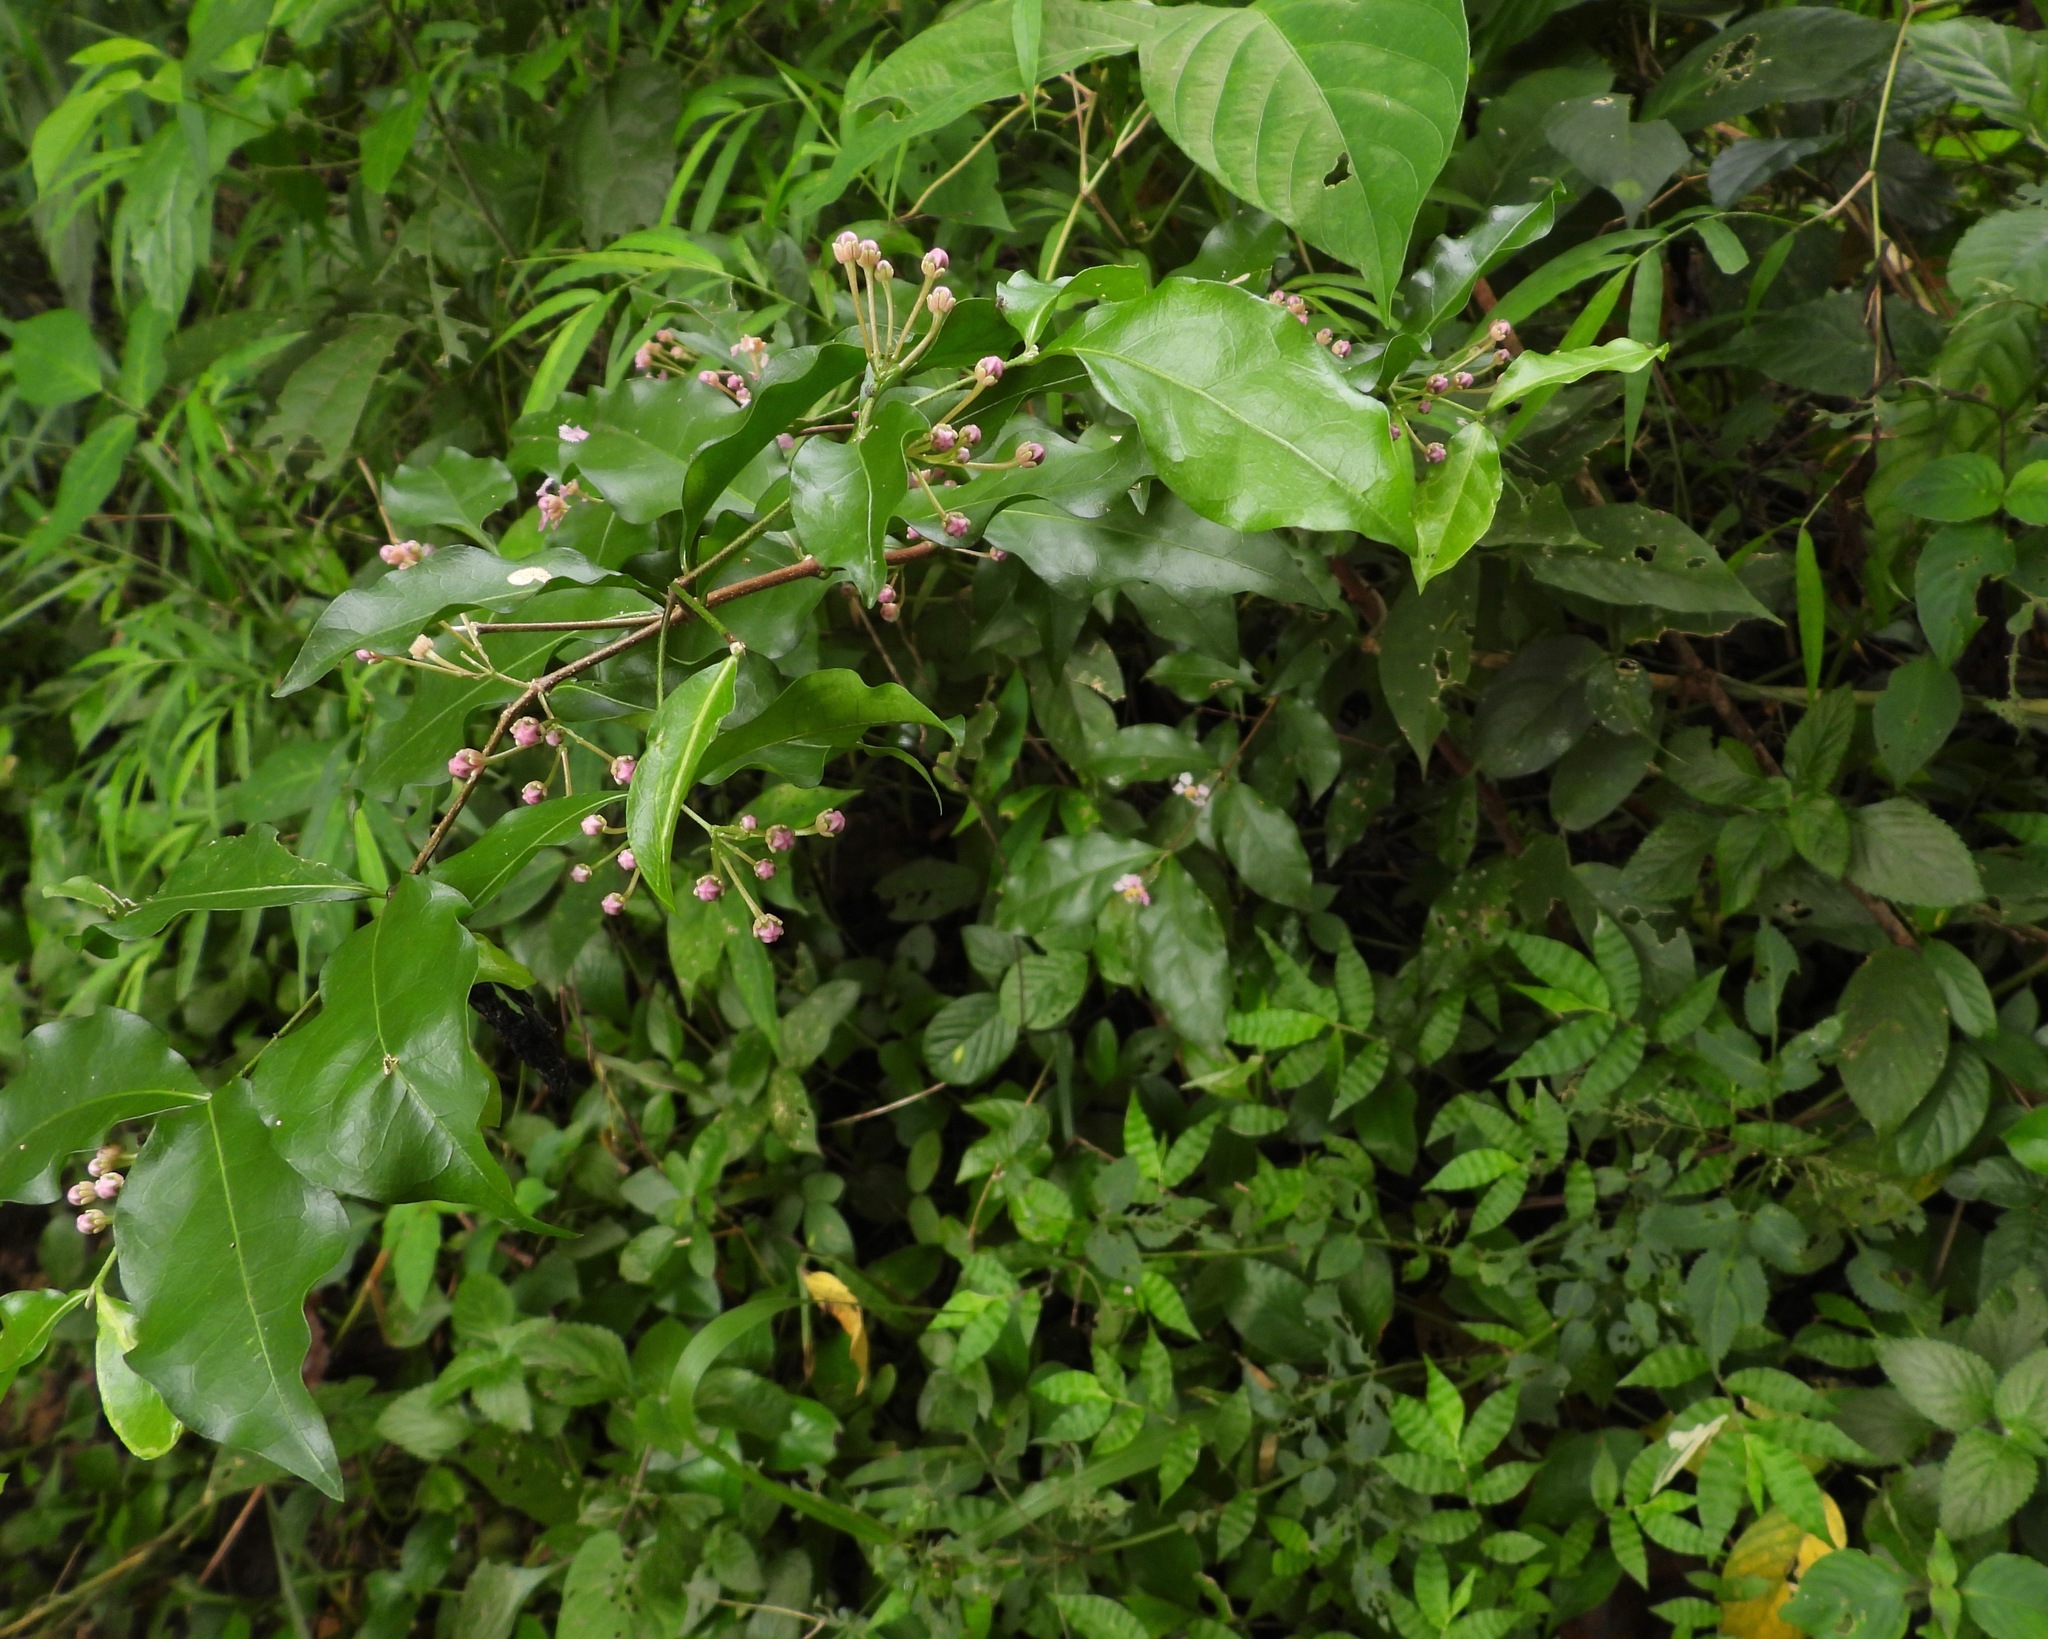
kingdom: Plantae
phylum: Tracheophyta
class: Magnoliopsida
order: Malpighiales
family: Malpighiaceae
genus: Malpighia
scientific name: Malpighia glabra
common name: Barbados cherry
